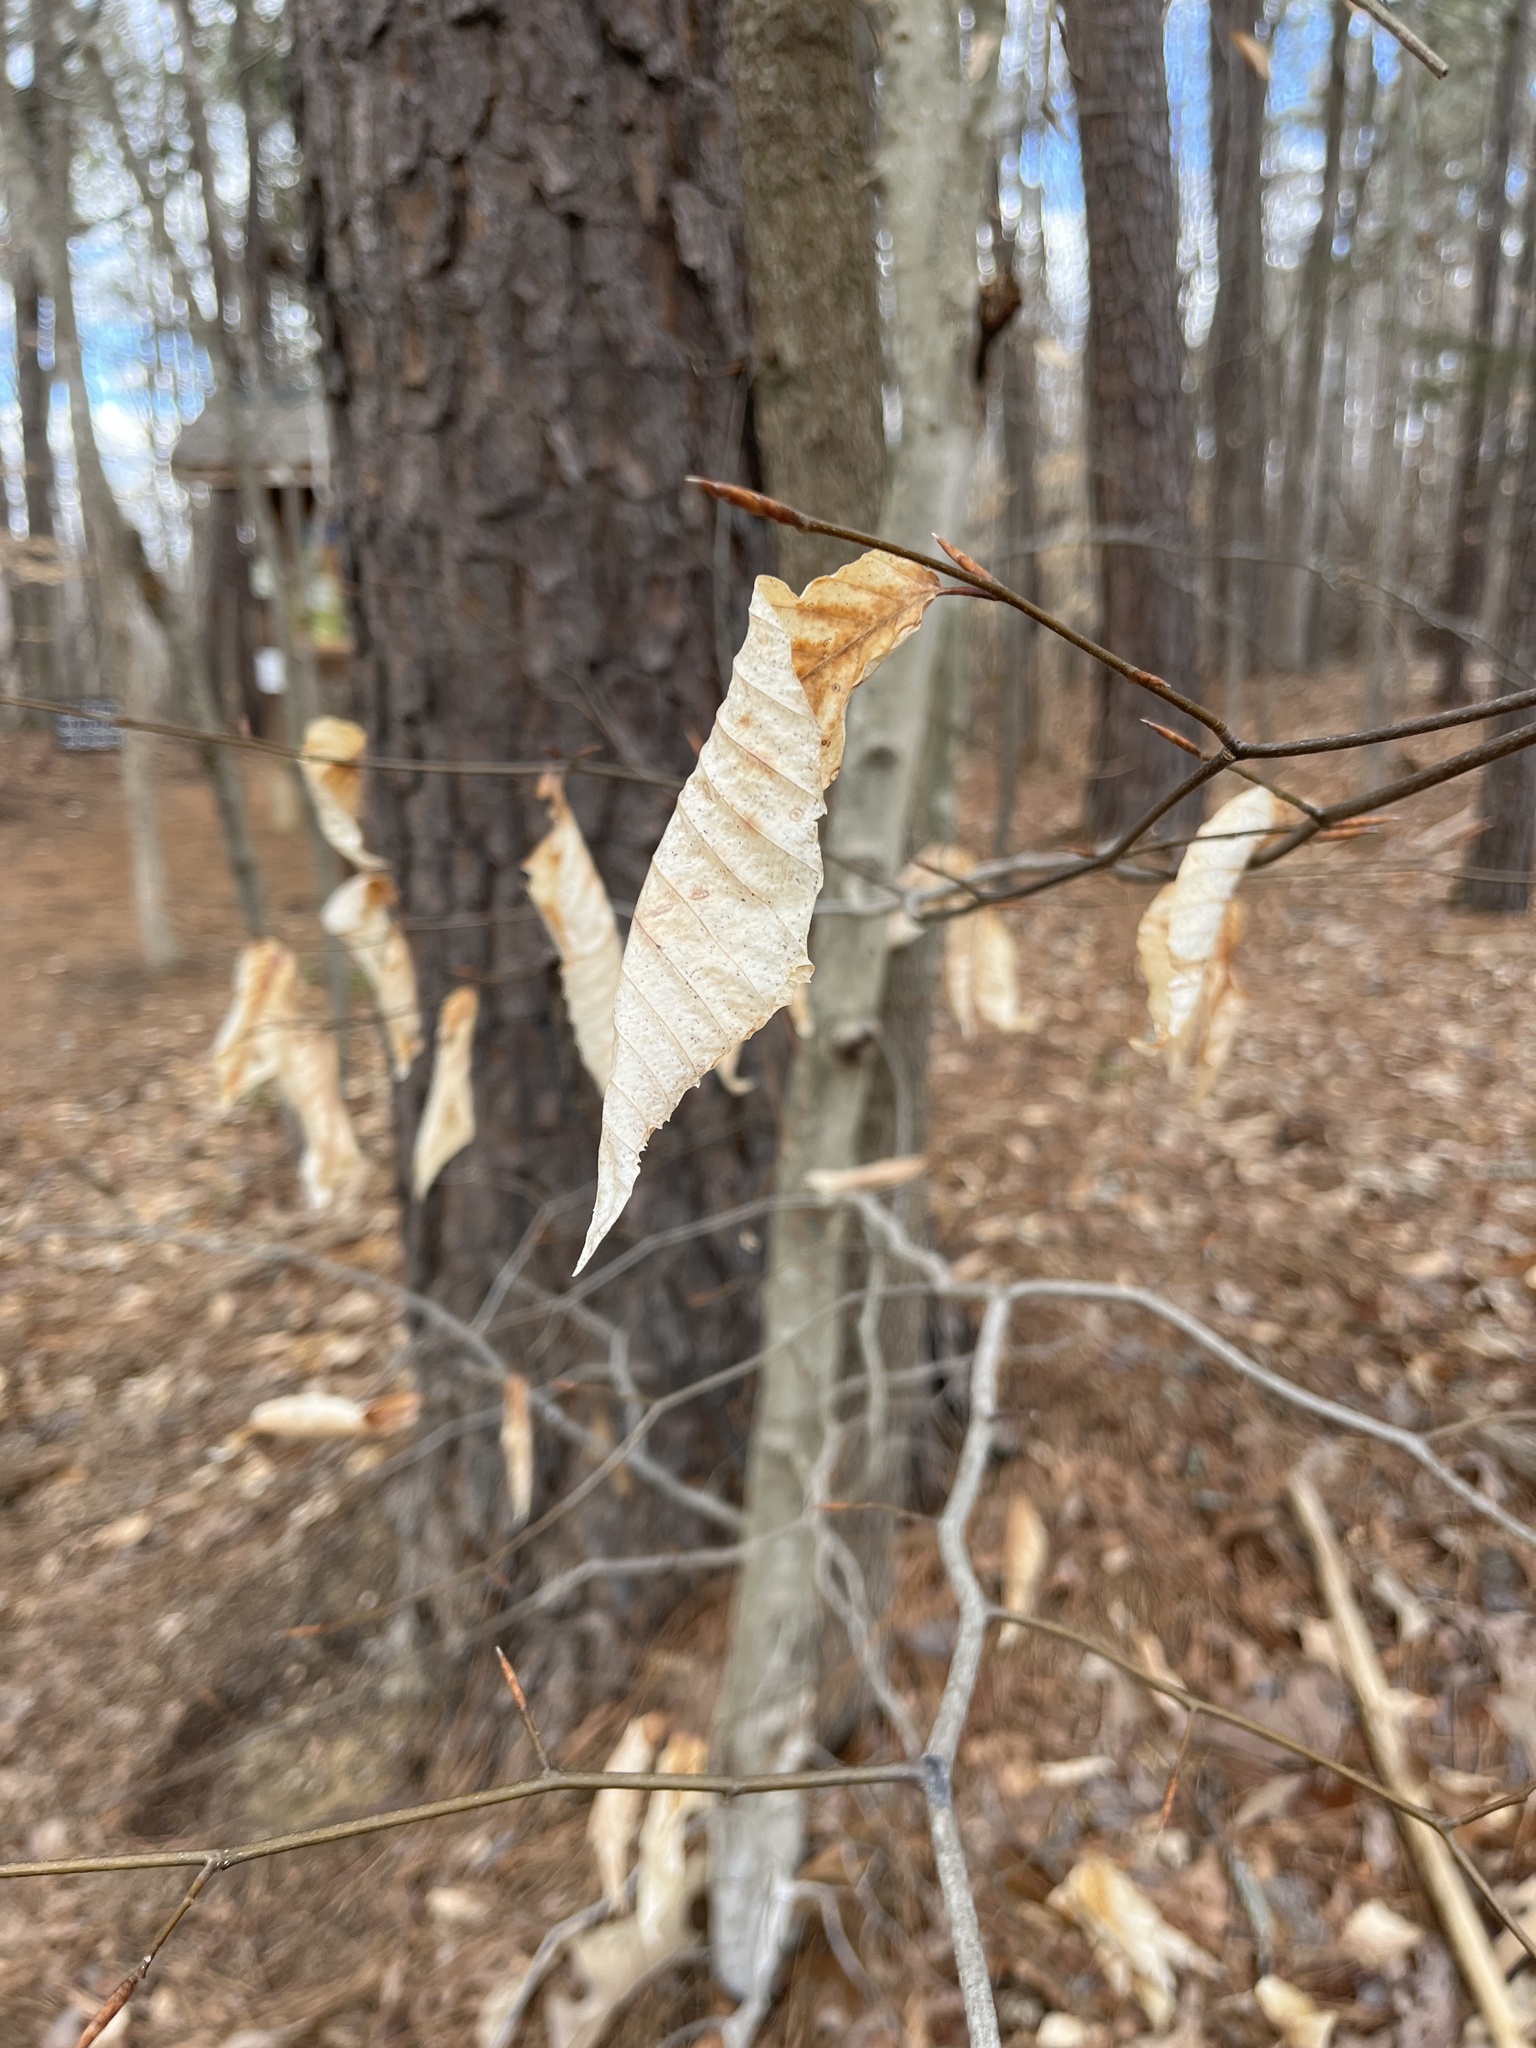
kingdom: Plantae
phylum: Tracheophyta
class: Magnoliopsida
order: Fagales
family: Fagaceae
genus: Fagus
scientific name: Fagus grandifolia
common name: American beech
